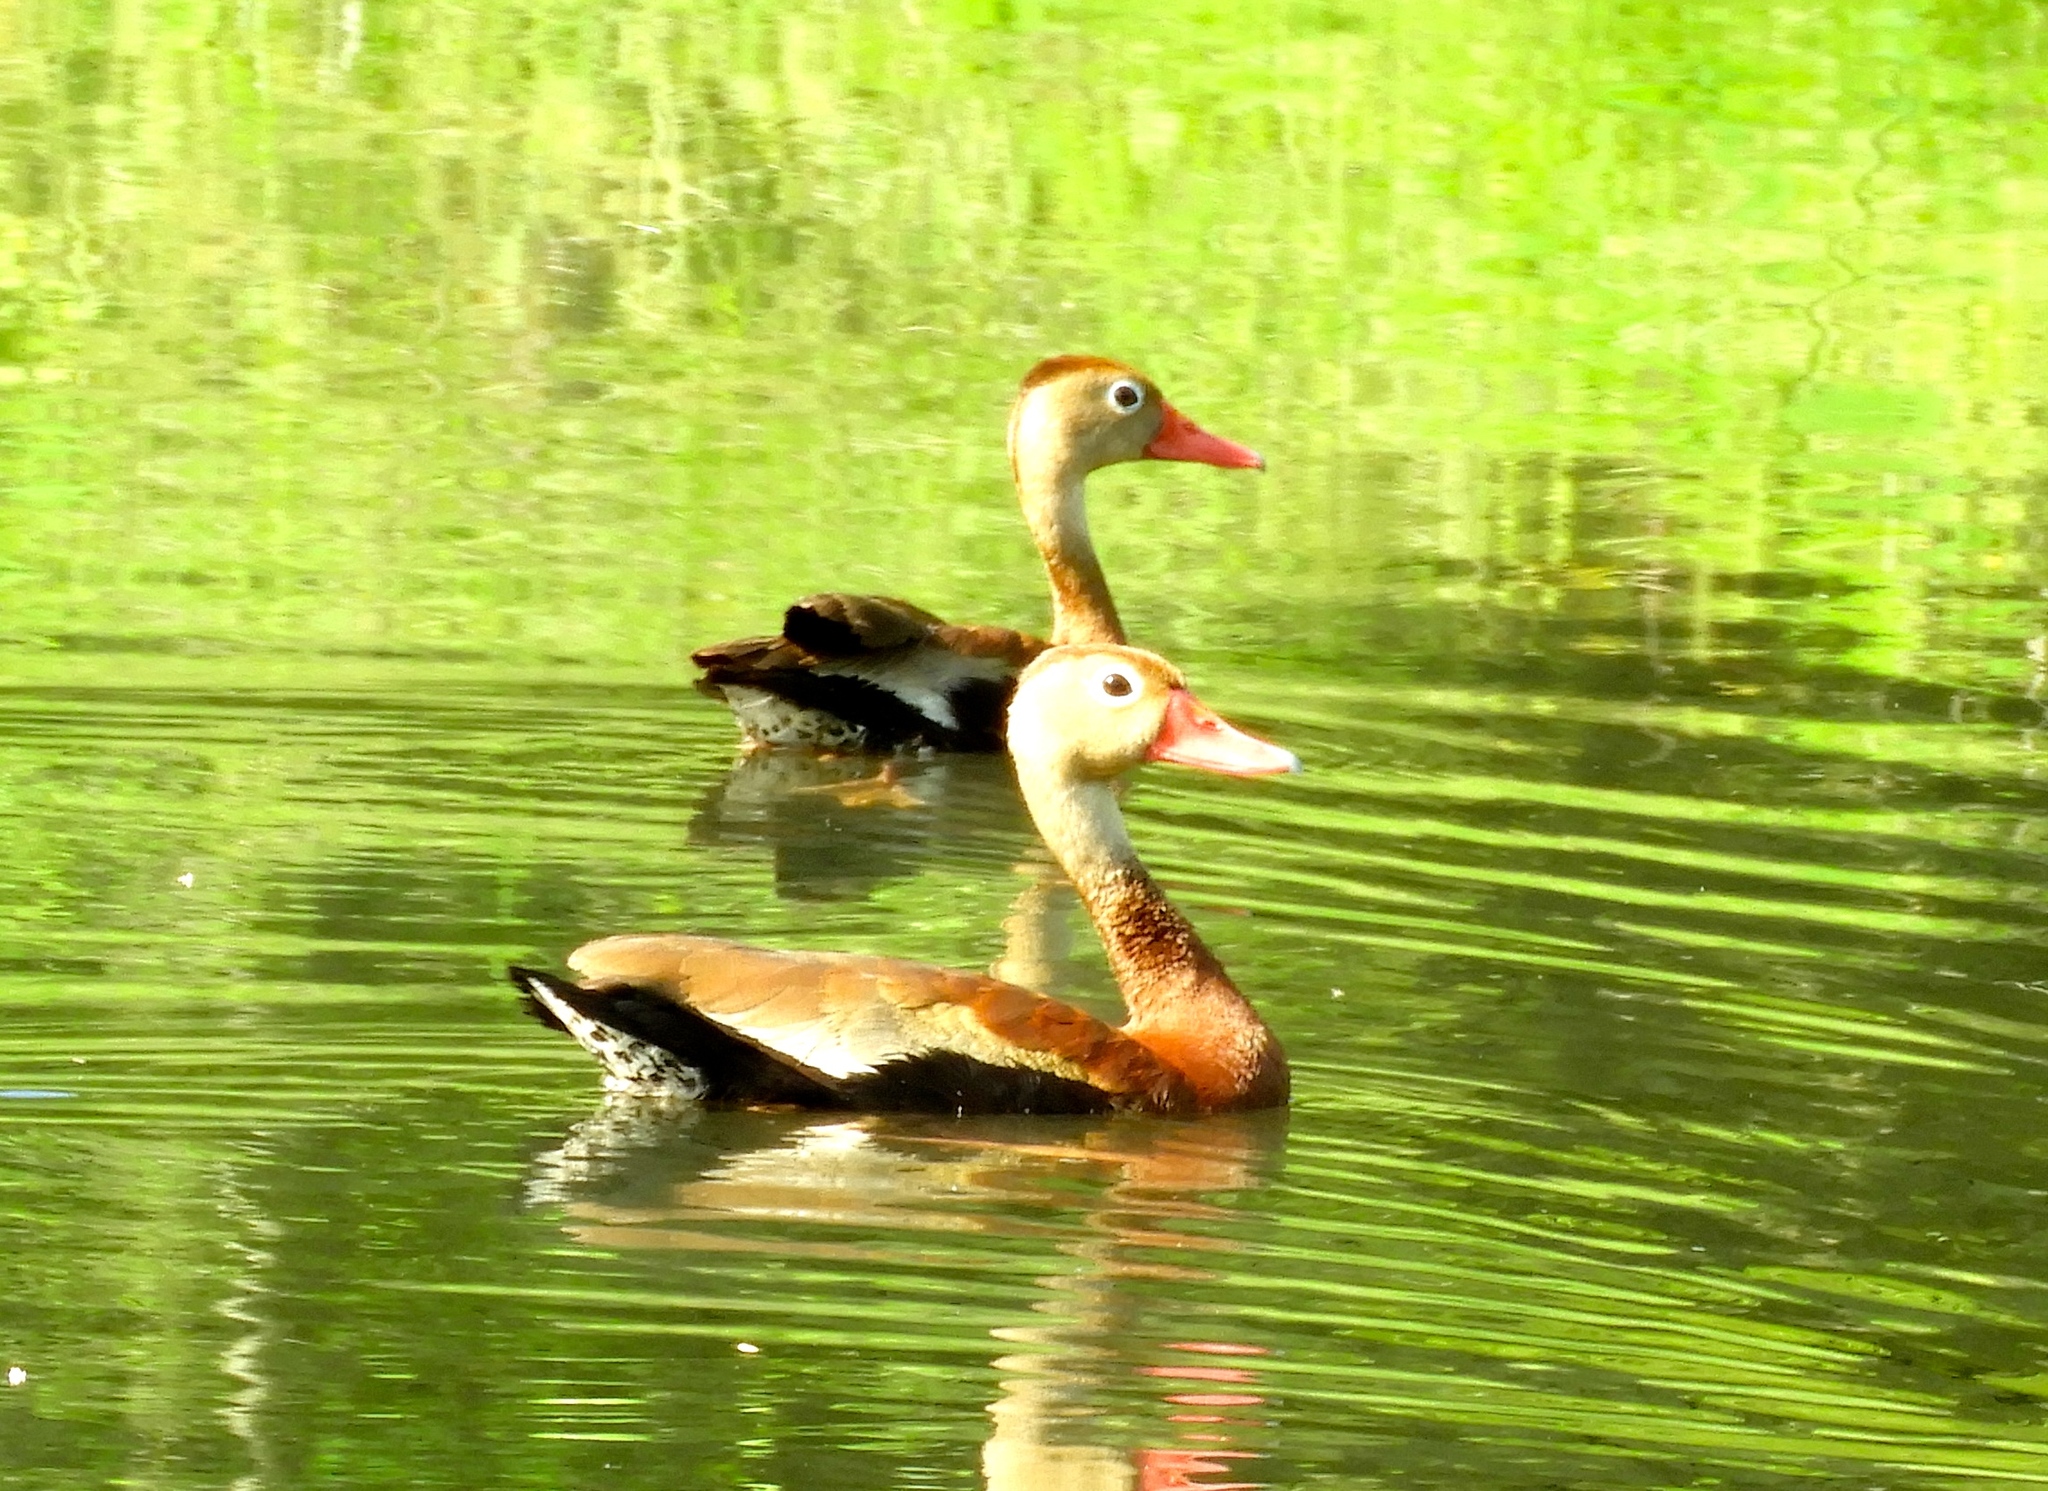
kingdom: Animalia
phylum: Chordata
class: Aves
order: Anseriformes
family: Anatidae
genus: Dendrocygna
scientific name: Dendrocygna autumnalis
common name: Black-bellied whistling duck
